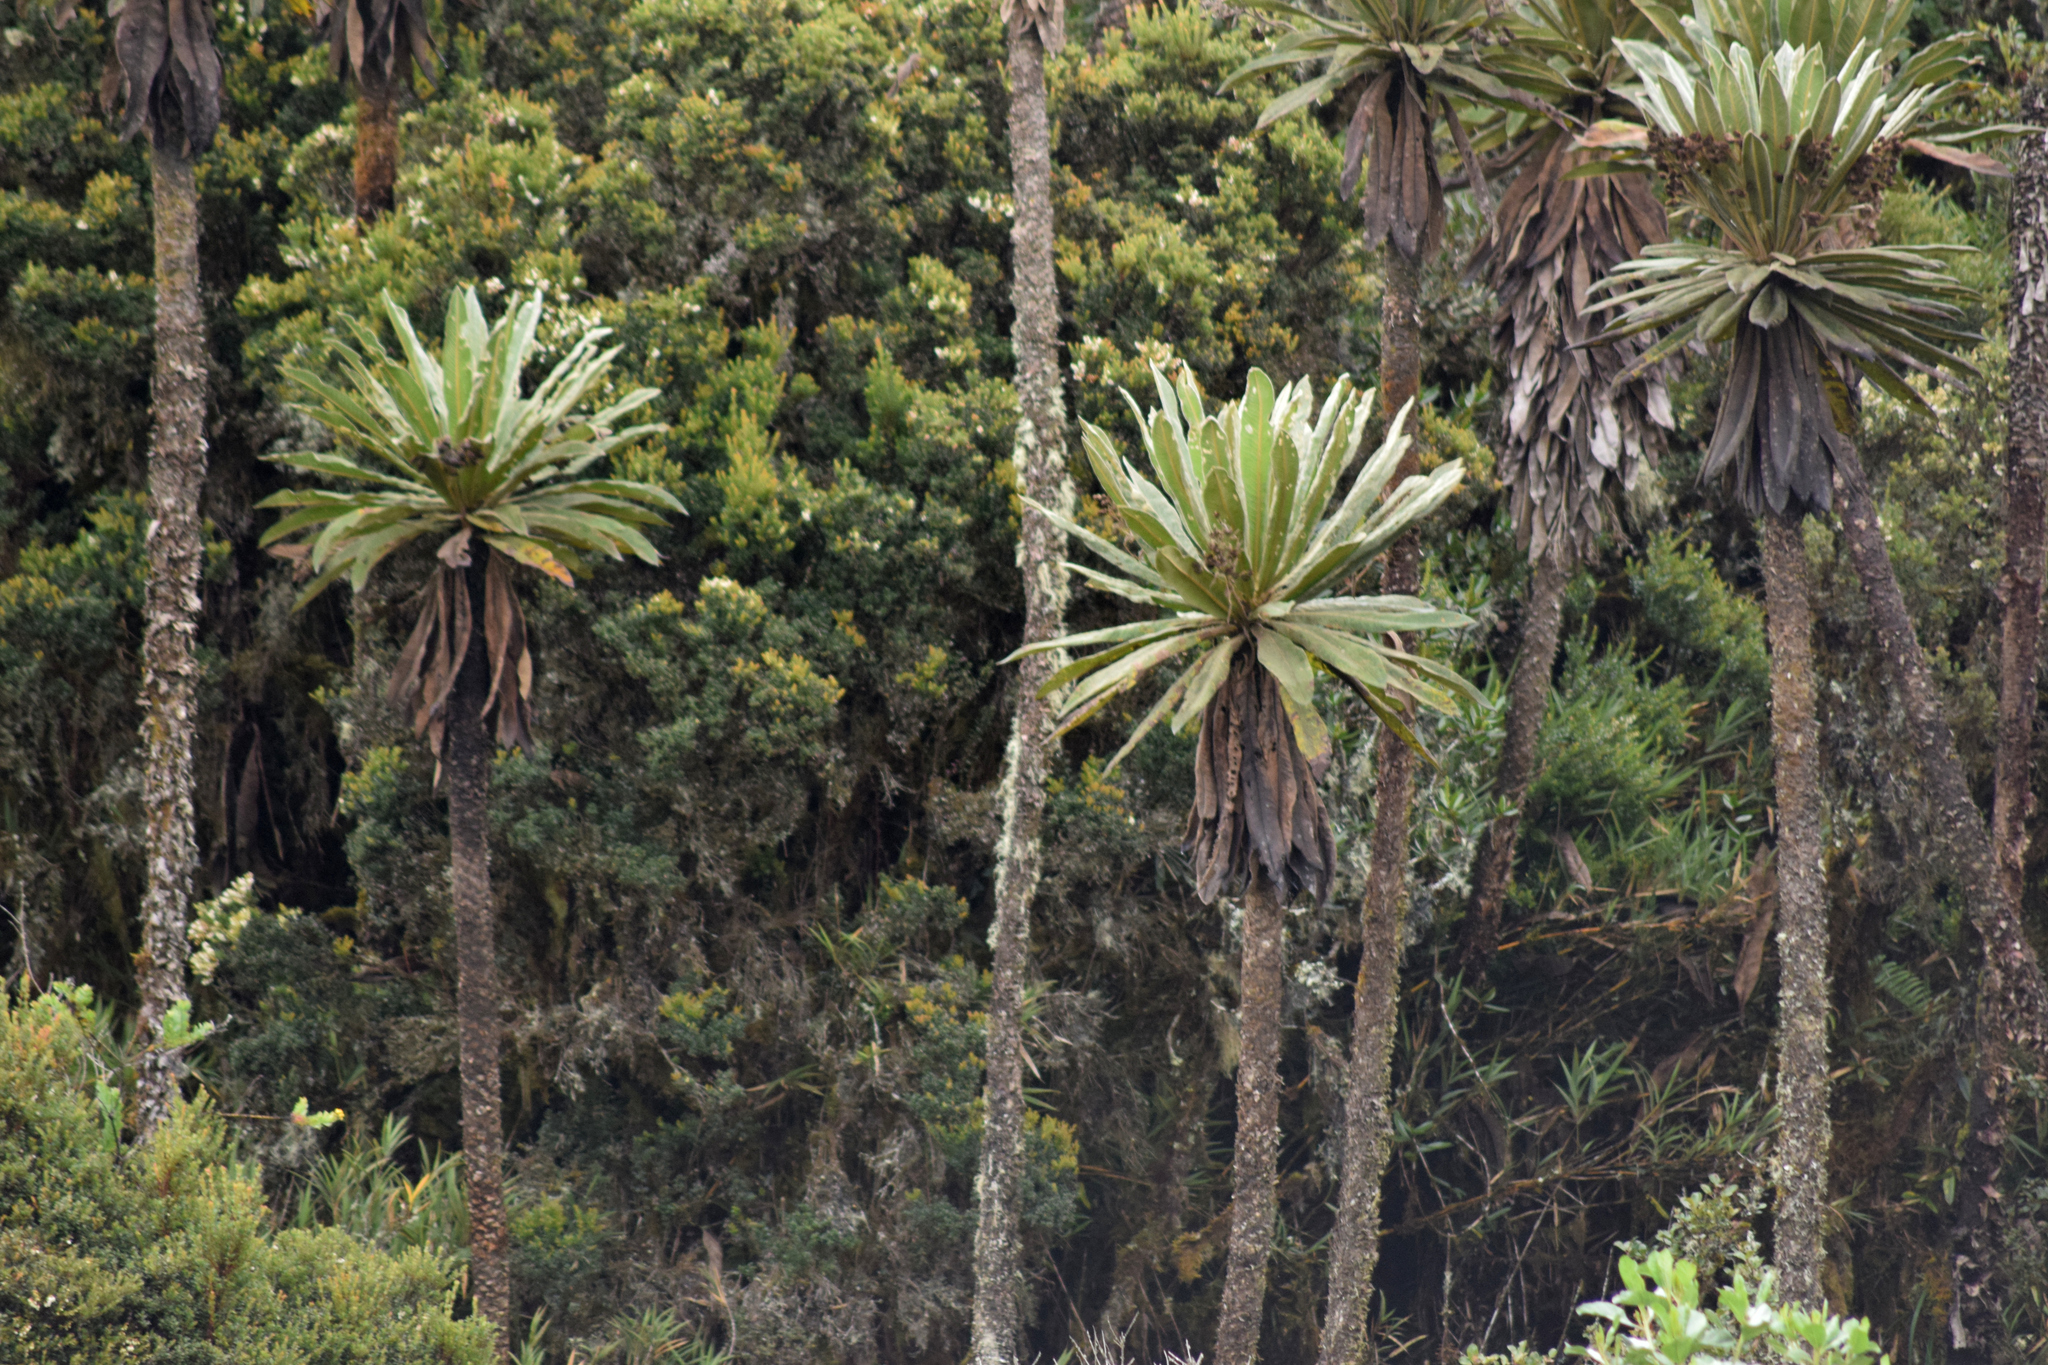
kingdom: Plantae
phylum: Tracheophyta
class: Magnoliopsida
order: Asterales
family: Asteraceae
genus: Espeletia
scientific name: Espeletia uribei
